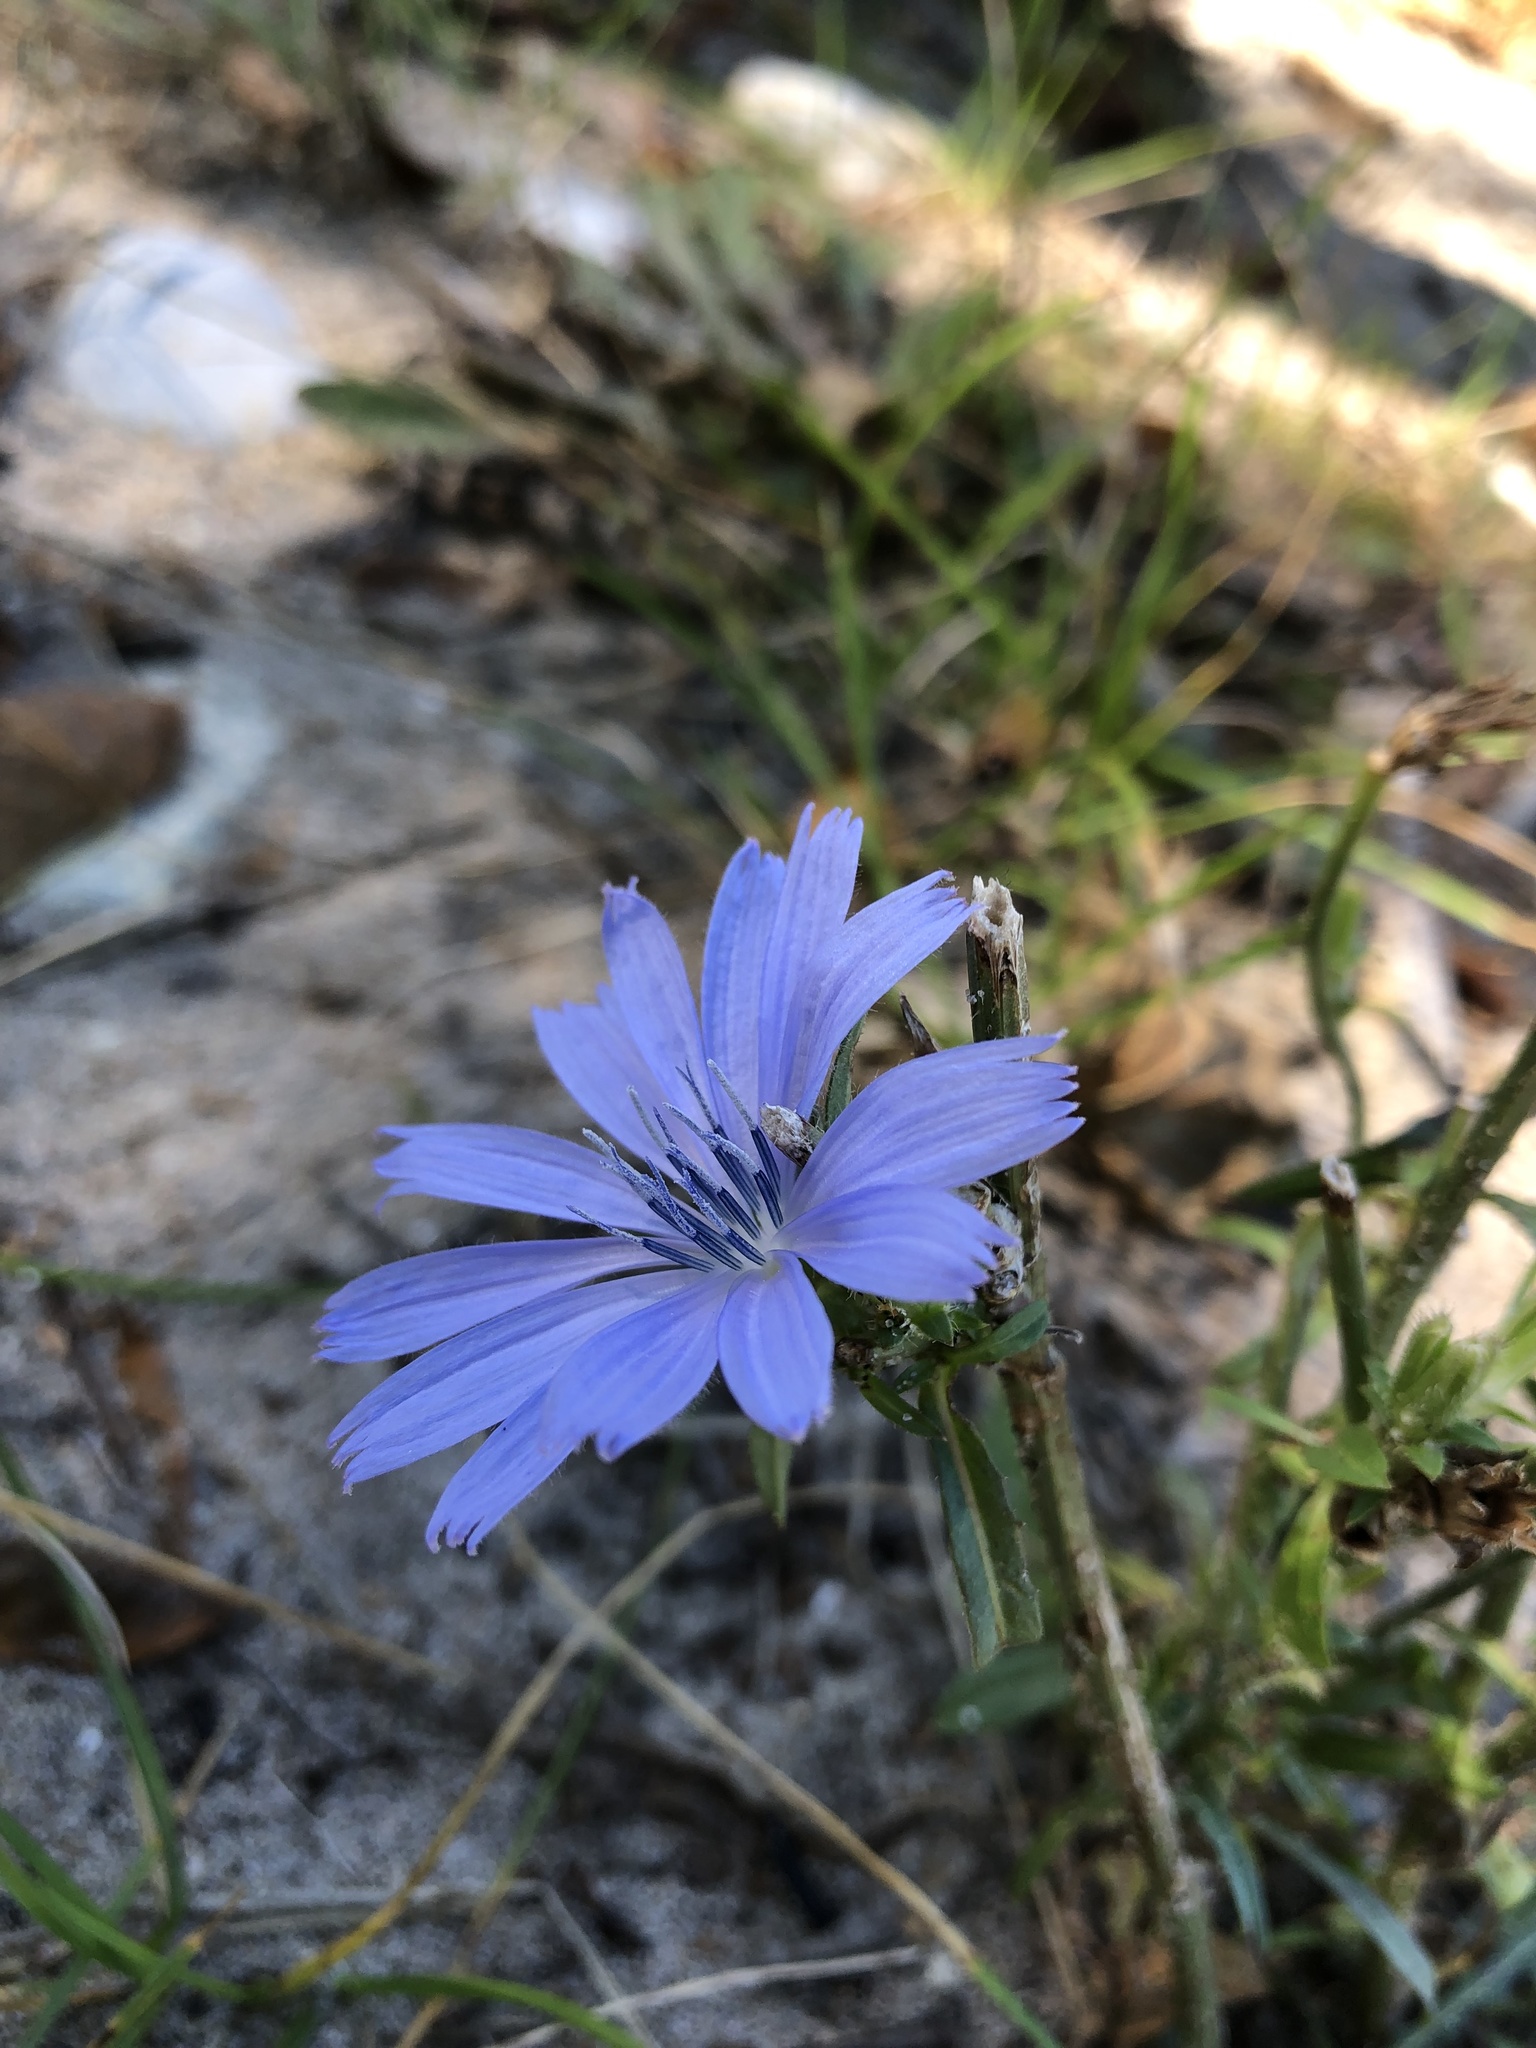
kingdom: Plantae
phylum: Tracheophyta
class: Magnoliopsida
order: Asterales
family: Asteraceae
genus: Cichorium
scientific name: Cichorium intybus
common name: Chicory
